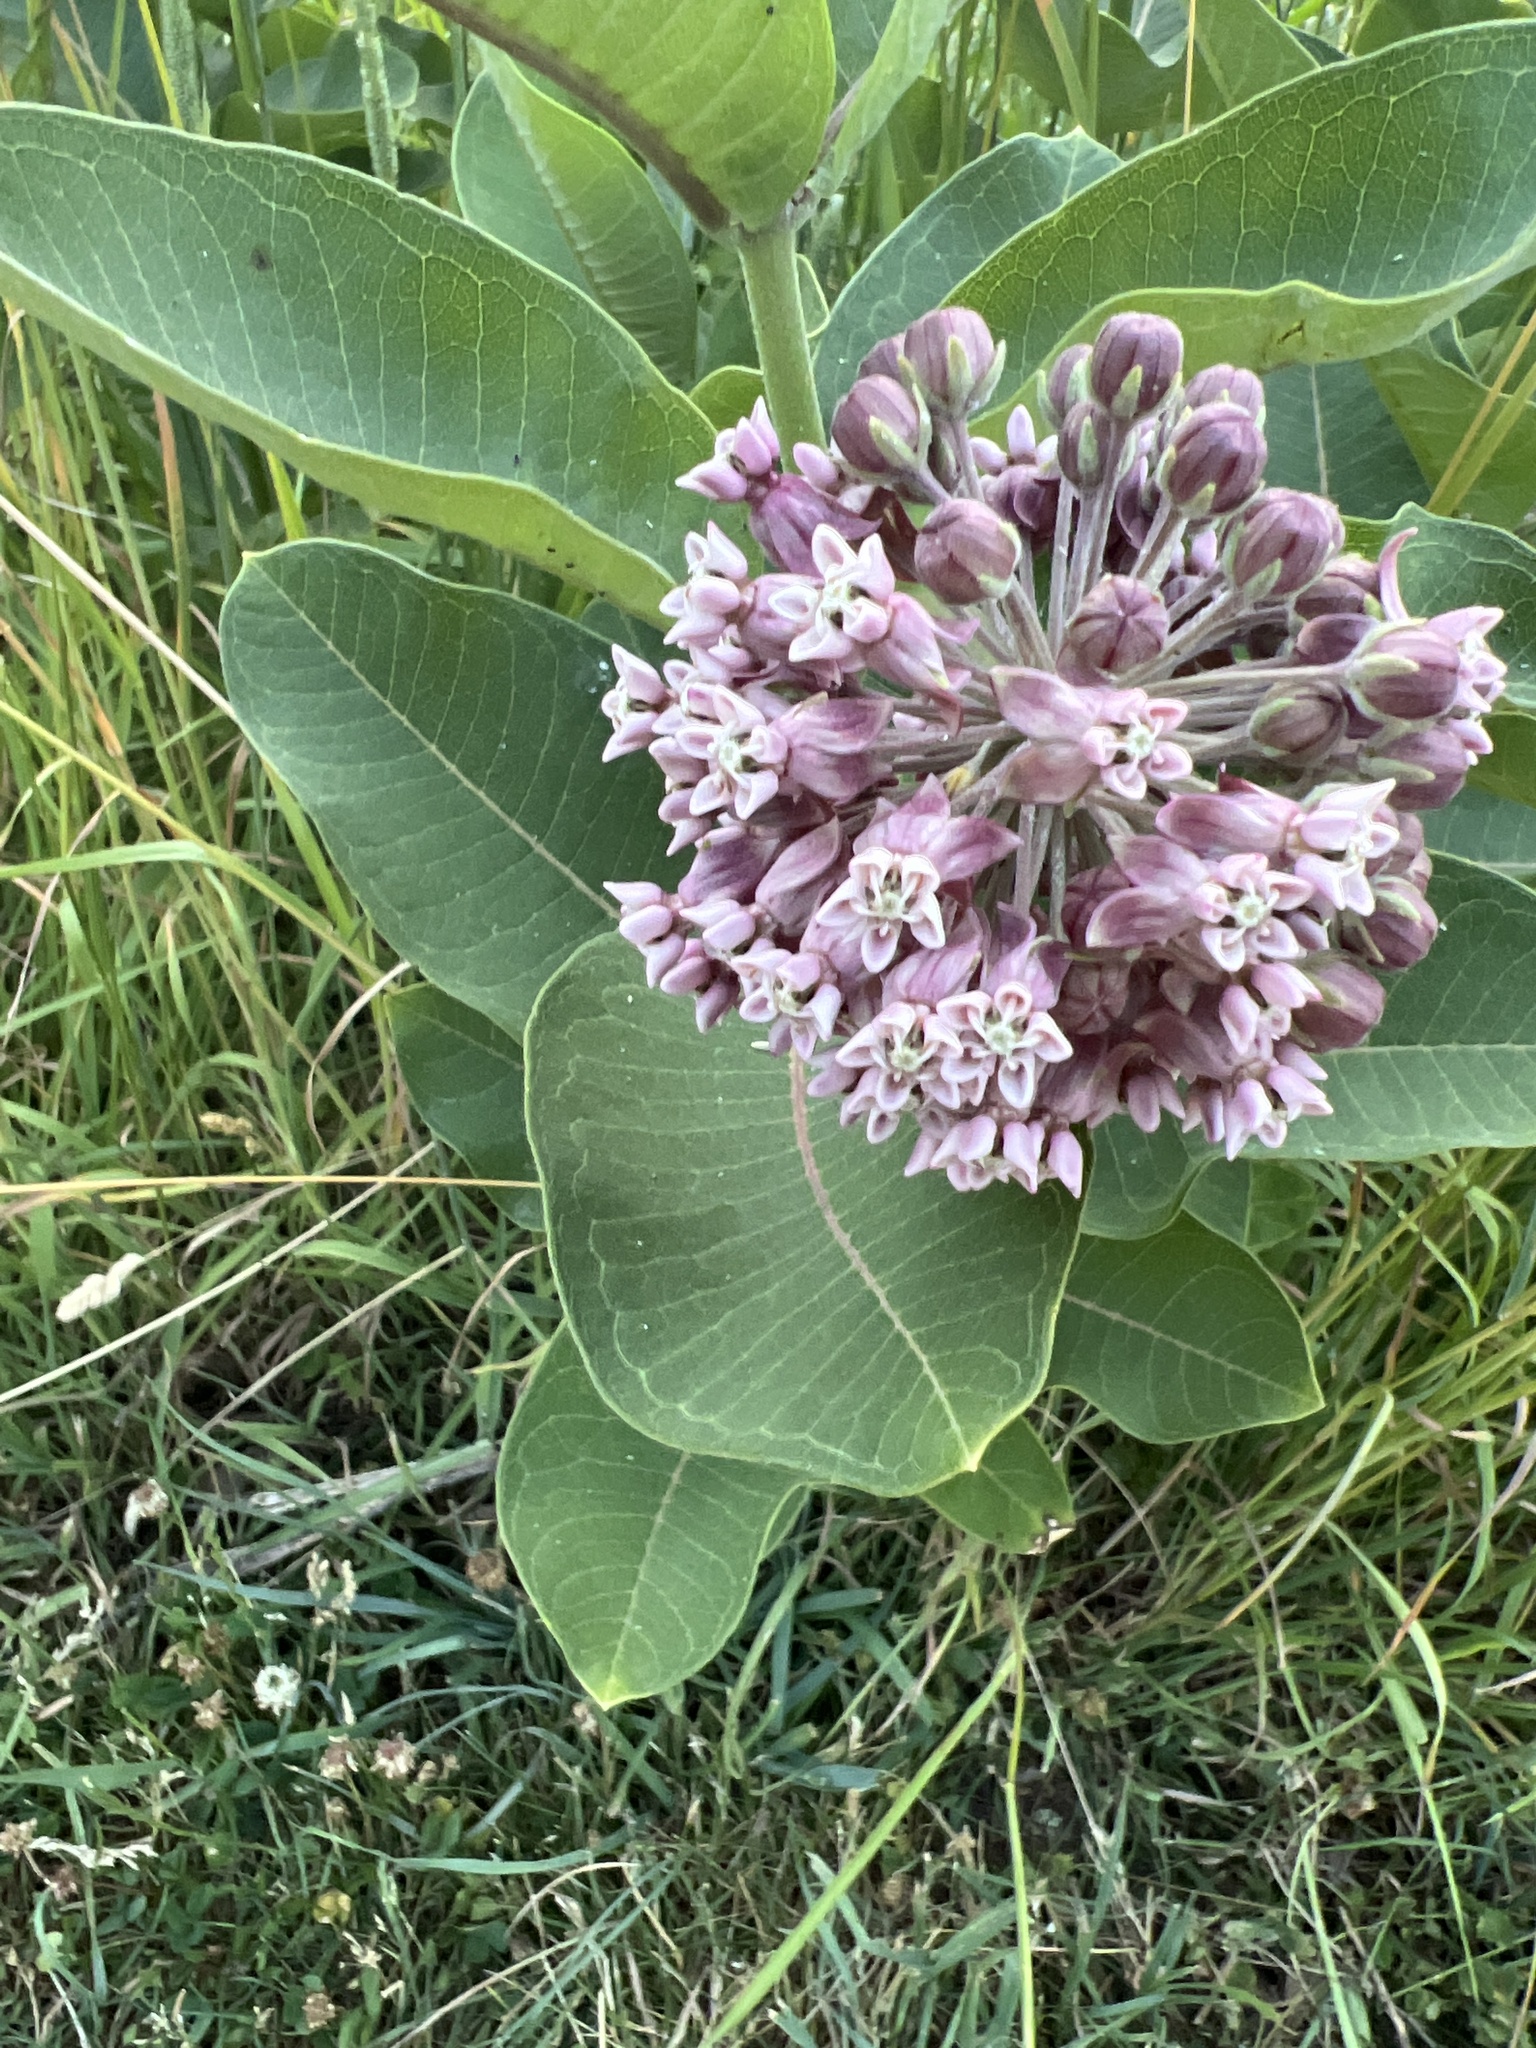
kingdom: Plantae
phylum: Tracheophyta
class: Magnoliopsida
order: Gentianales
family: Apocynaceae
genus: Asclepias
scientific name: Asclepias syriaca
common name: Common milkweed
